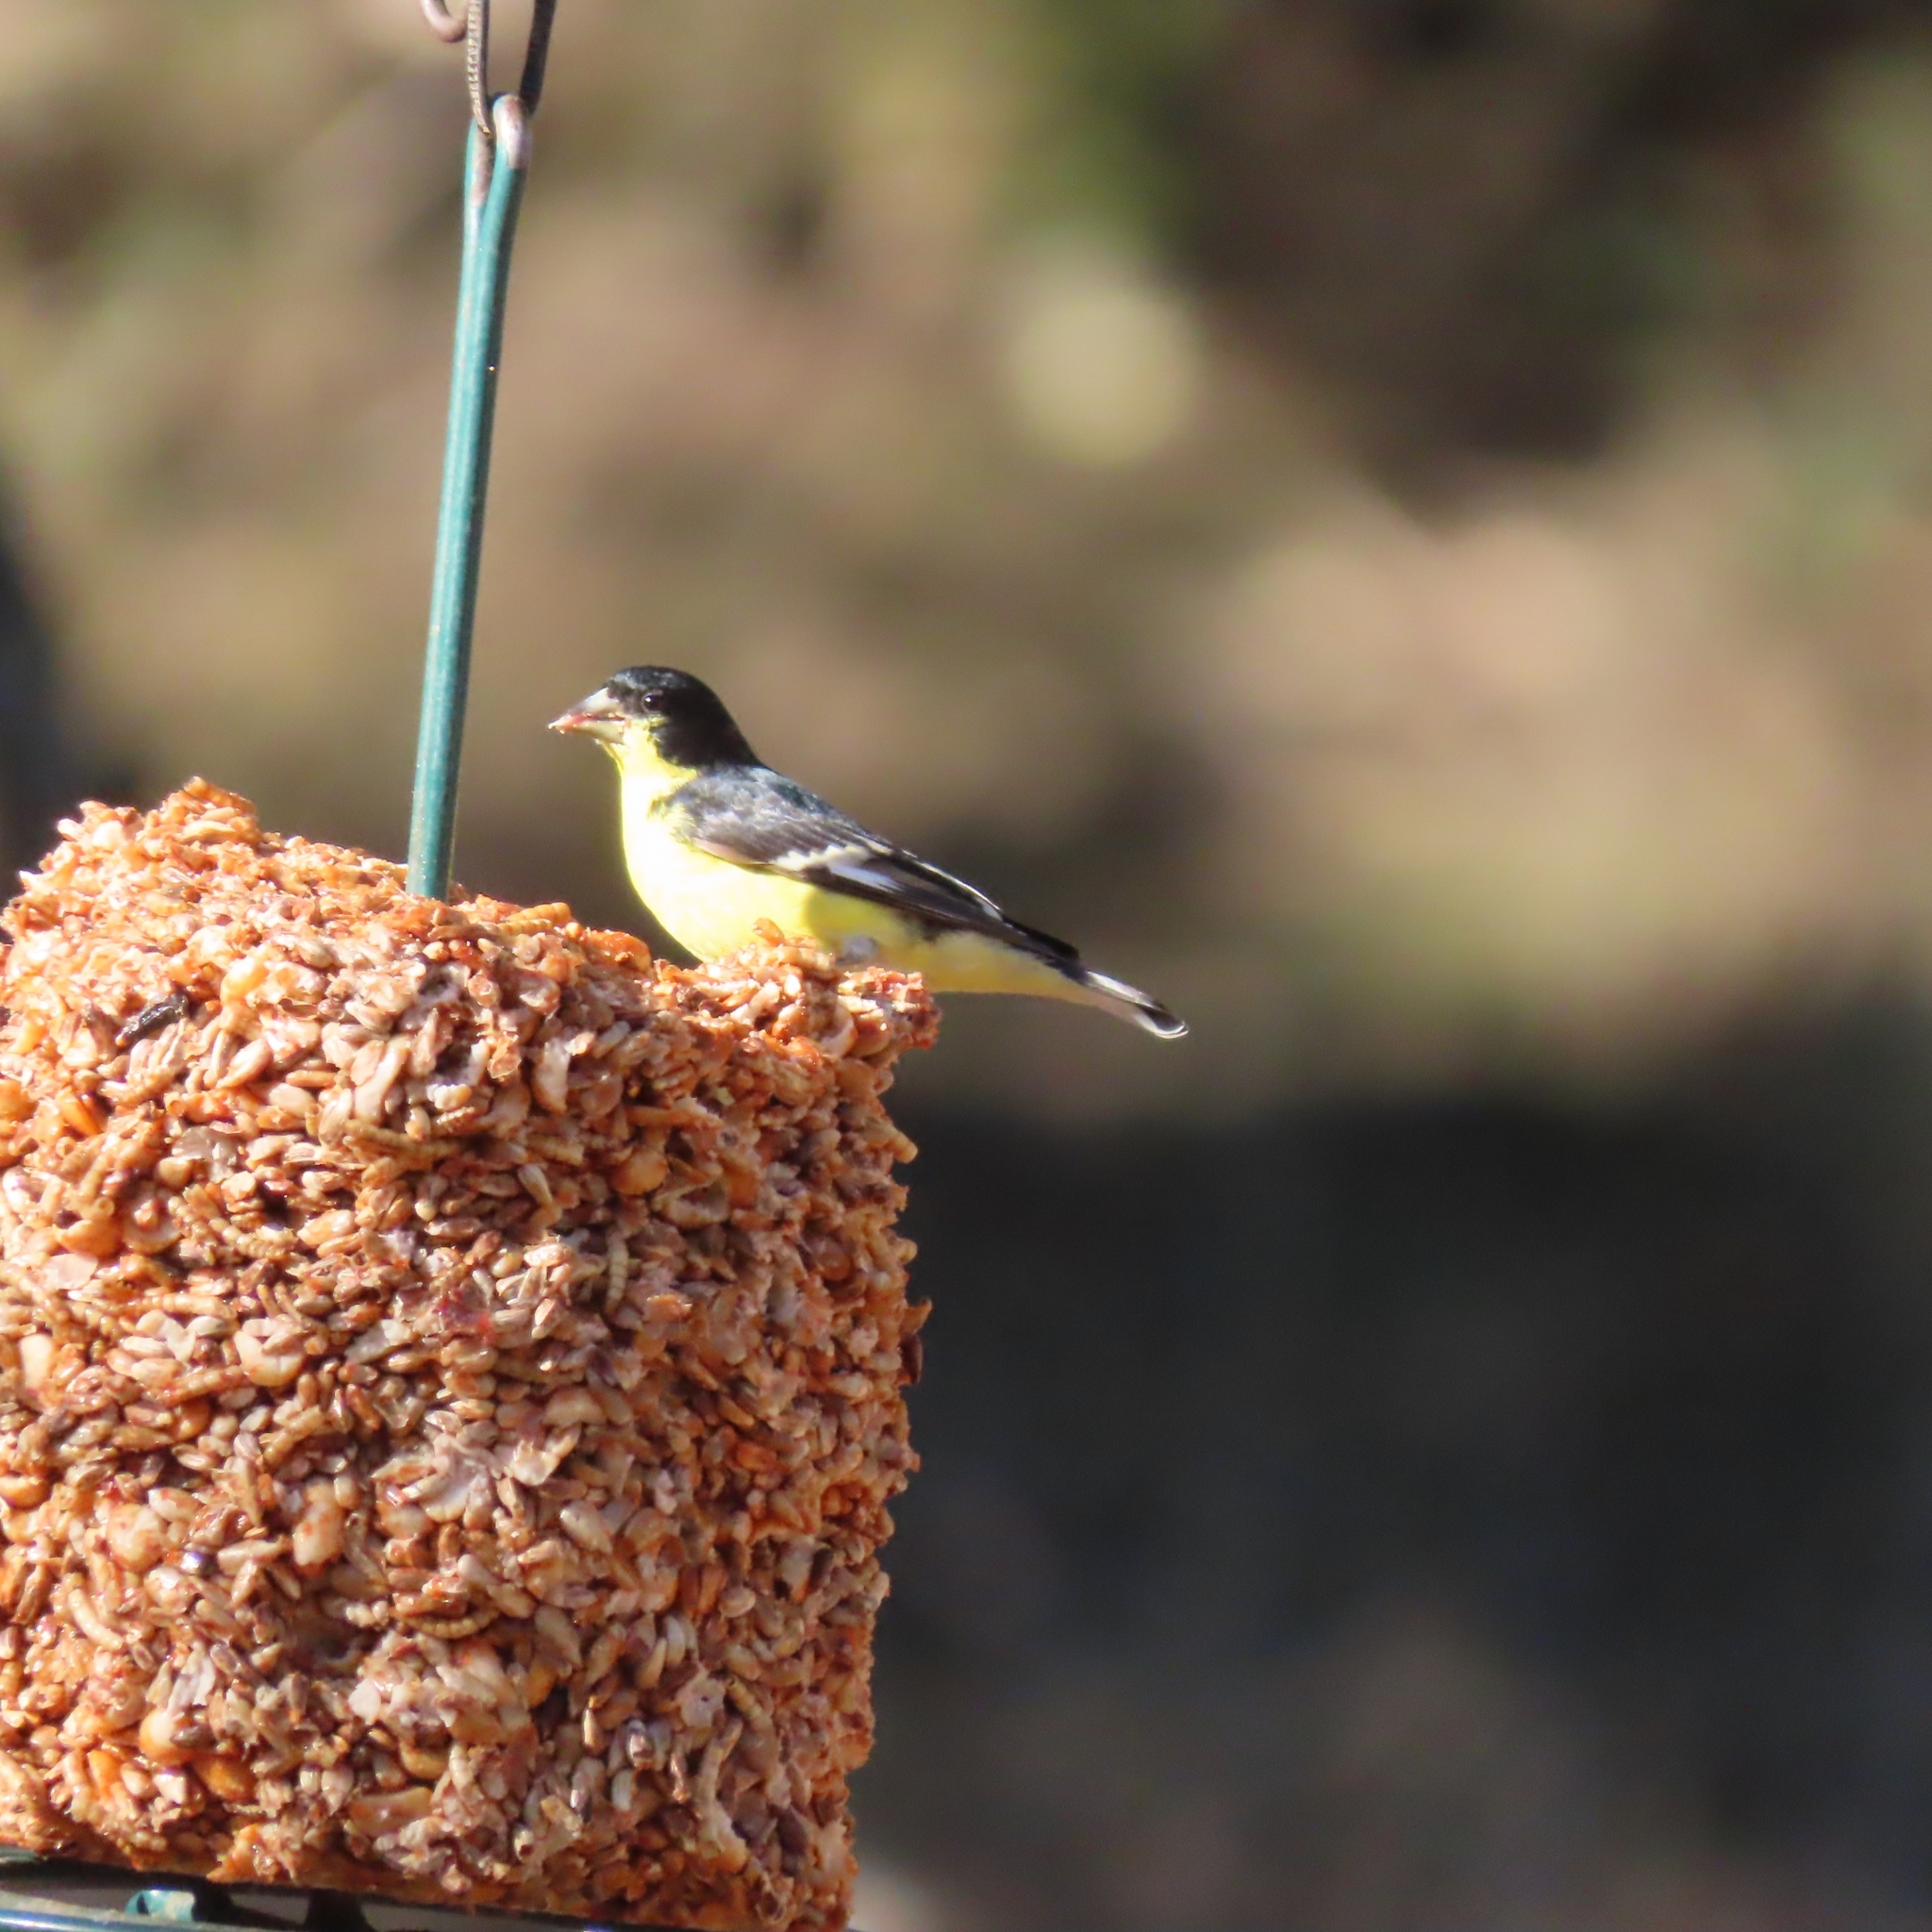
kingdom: Animalia
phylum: Chordata
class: Aves
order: Passeriformes
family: Fringillidae
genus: Spinus
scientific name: Spinus psaltria
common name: Lesser goldfinch
